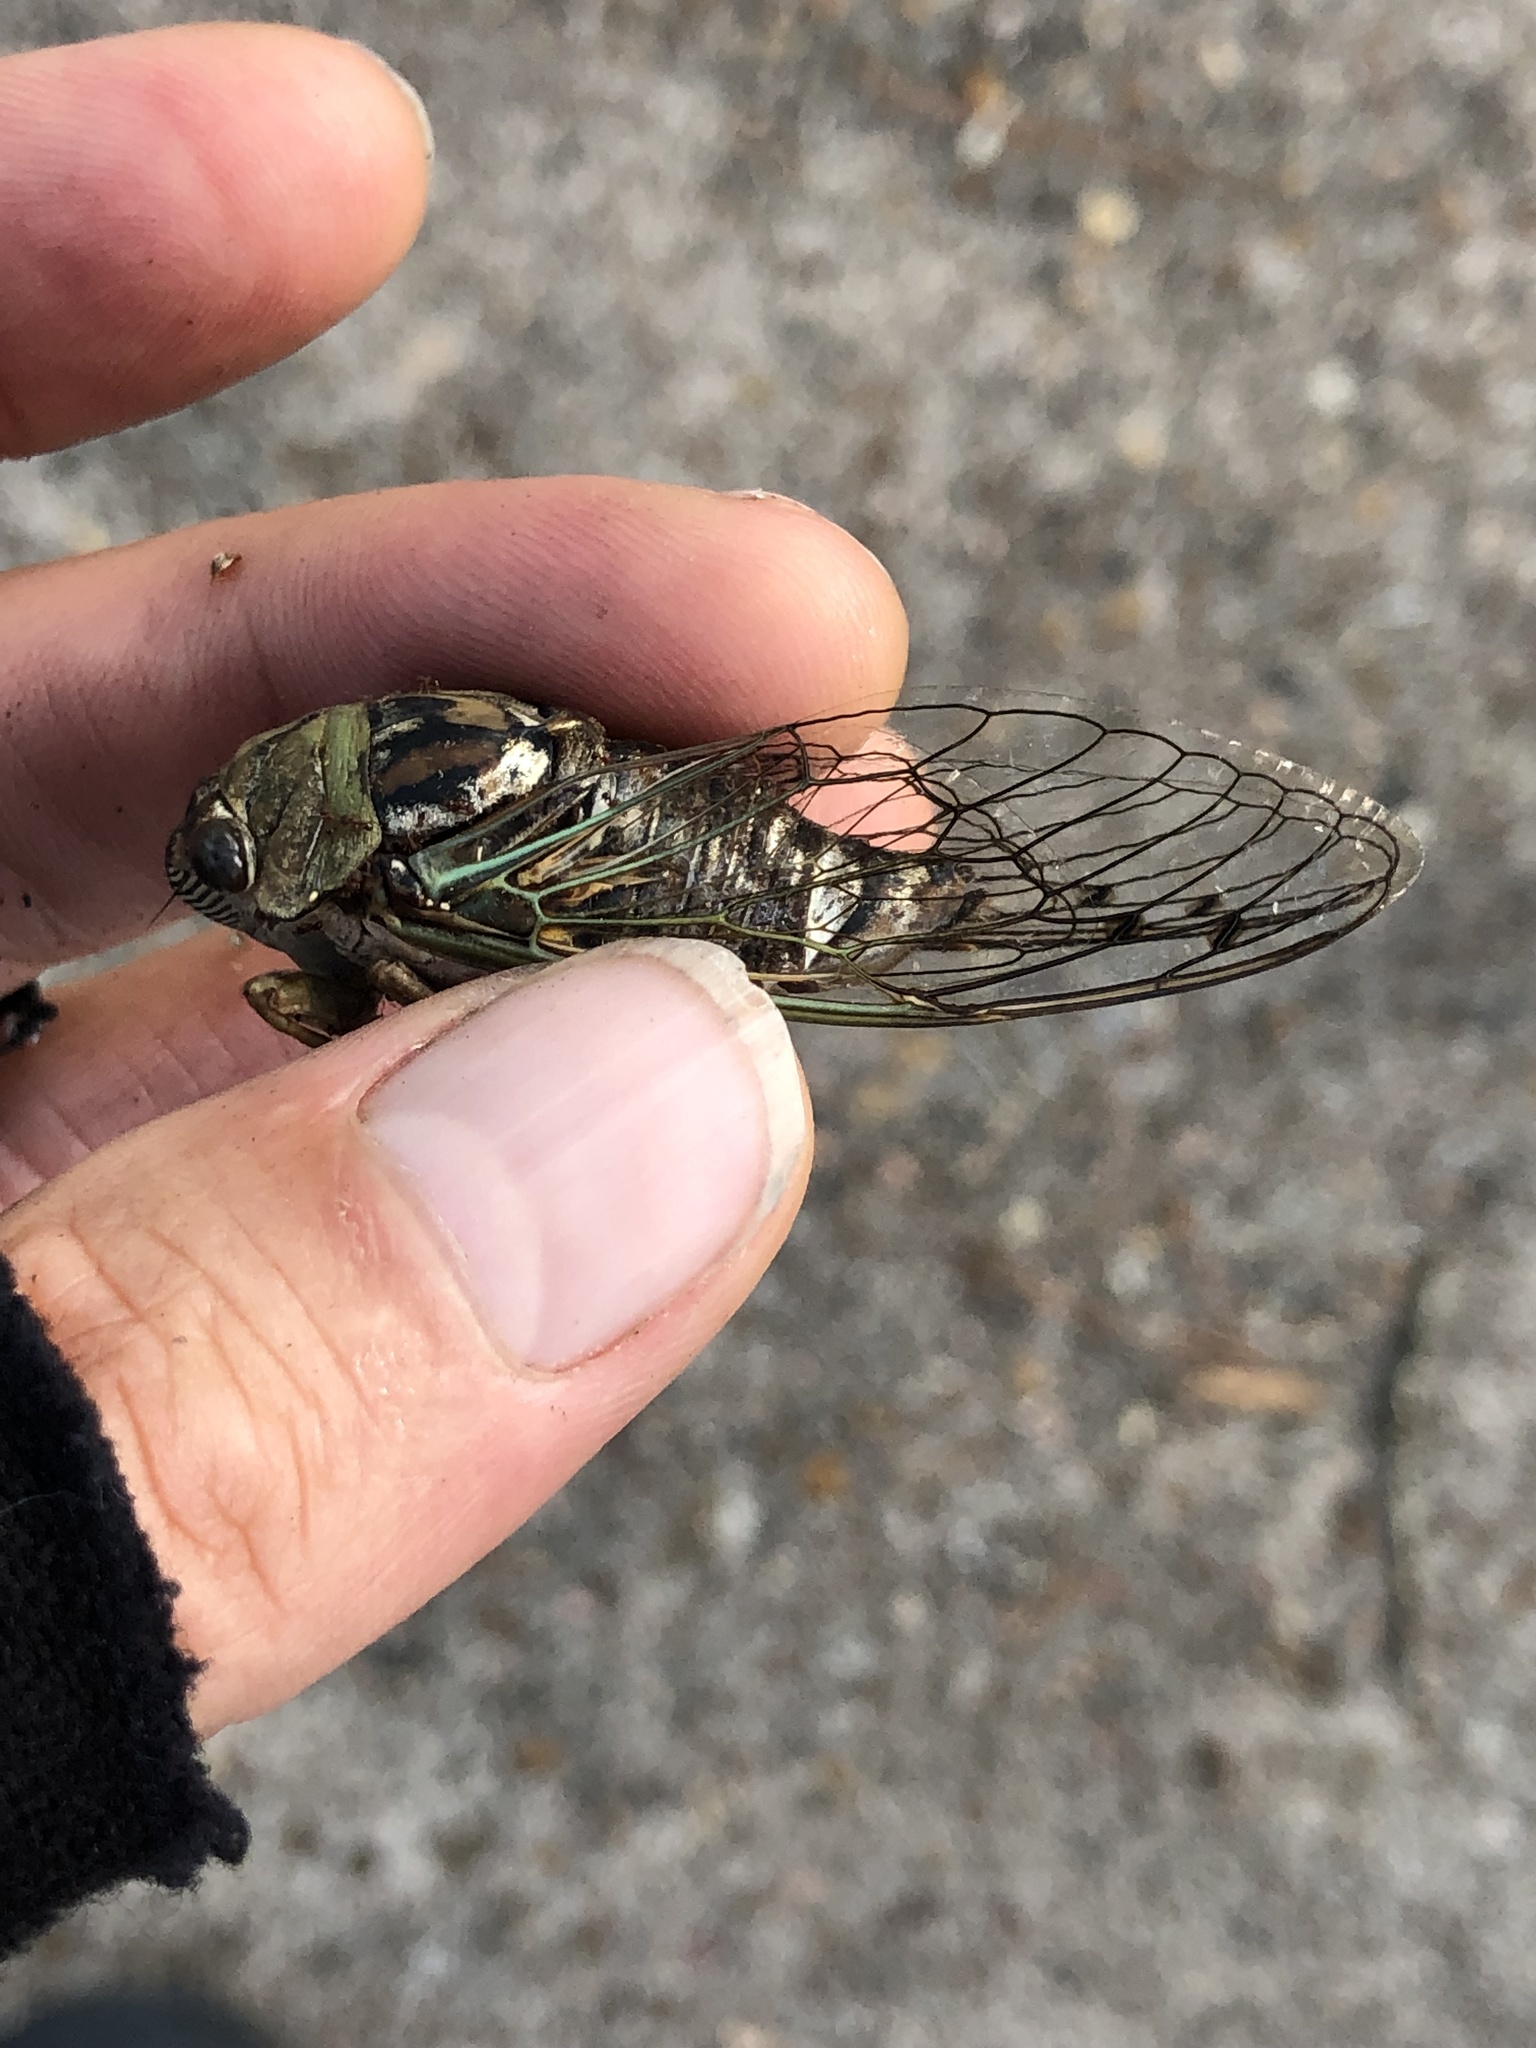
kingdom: Animalia
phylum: Arthropoda
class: Insecta
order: Hemiptera
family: Cicadidae
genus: Megatibicen
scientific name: Megatibicen resh
